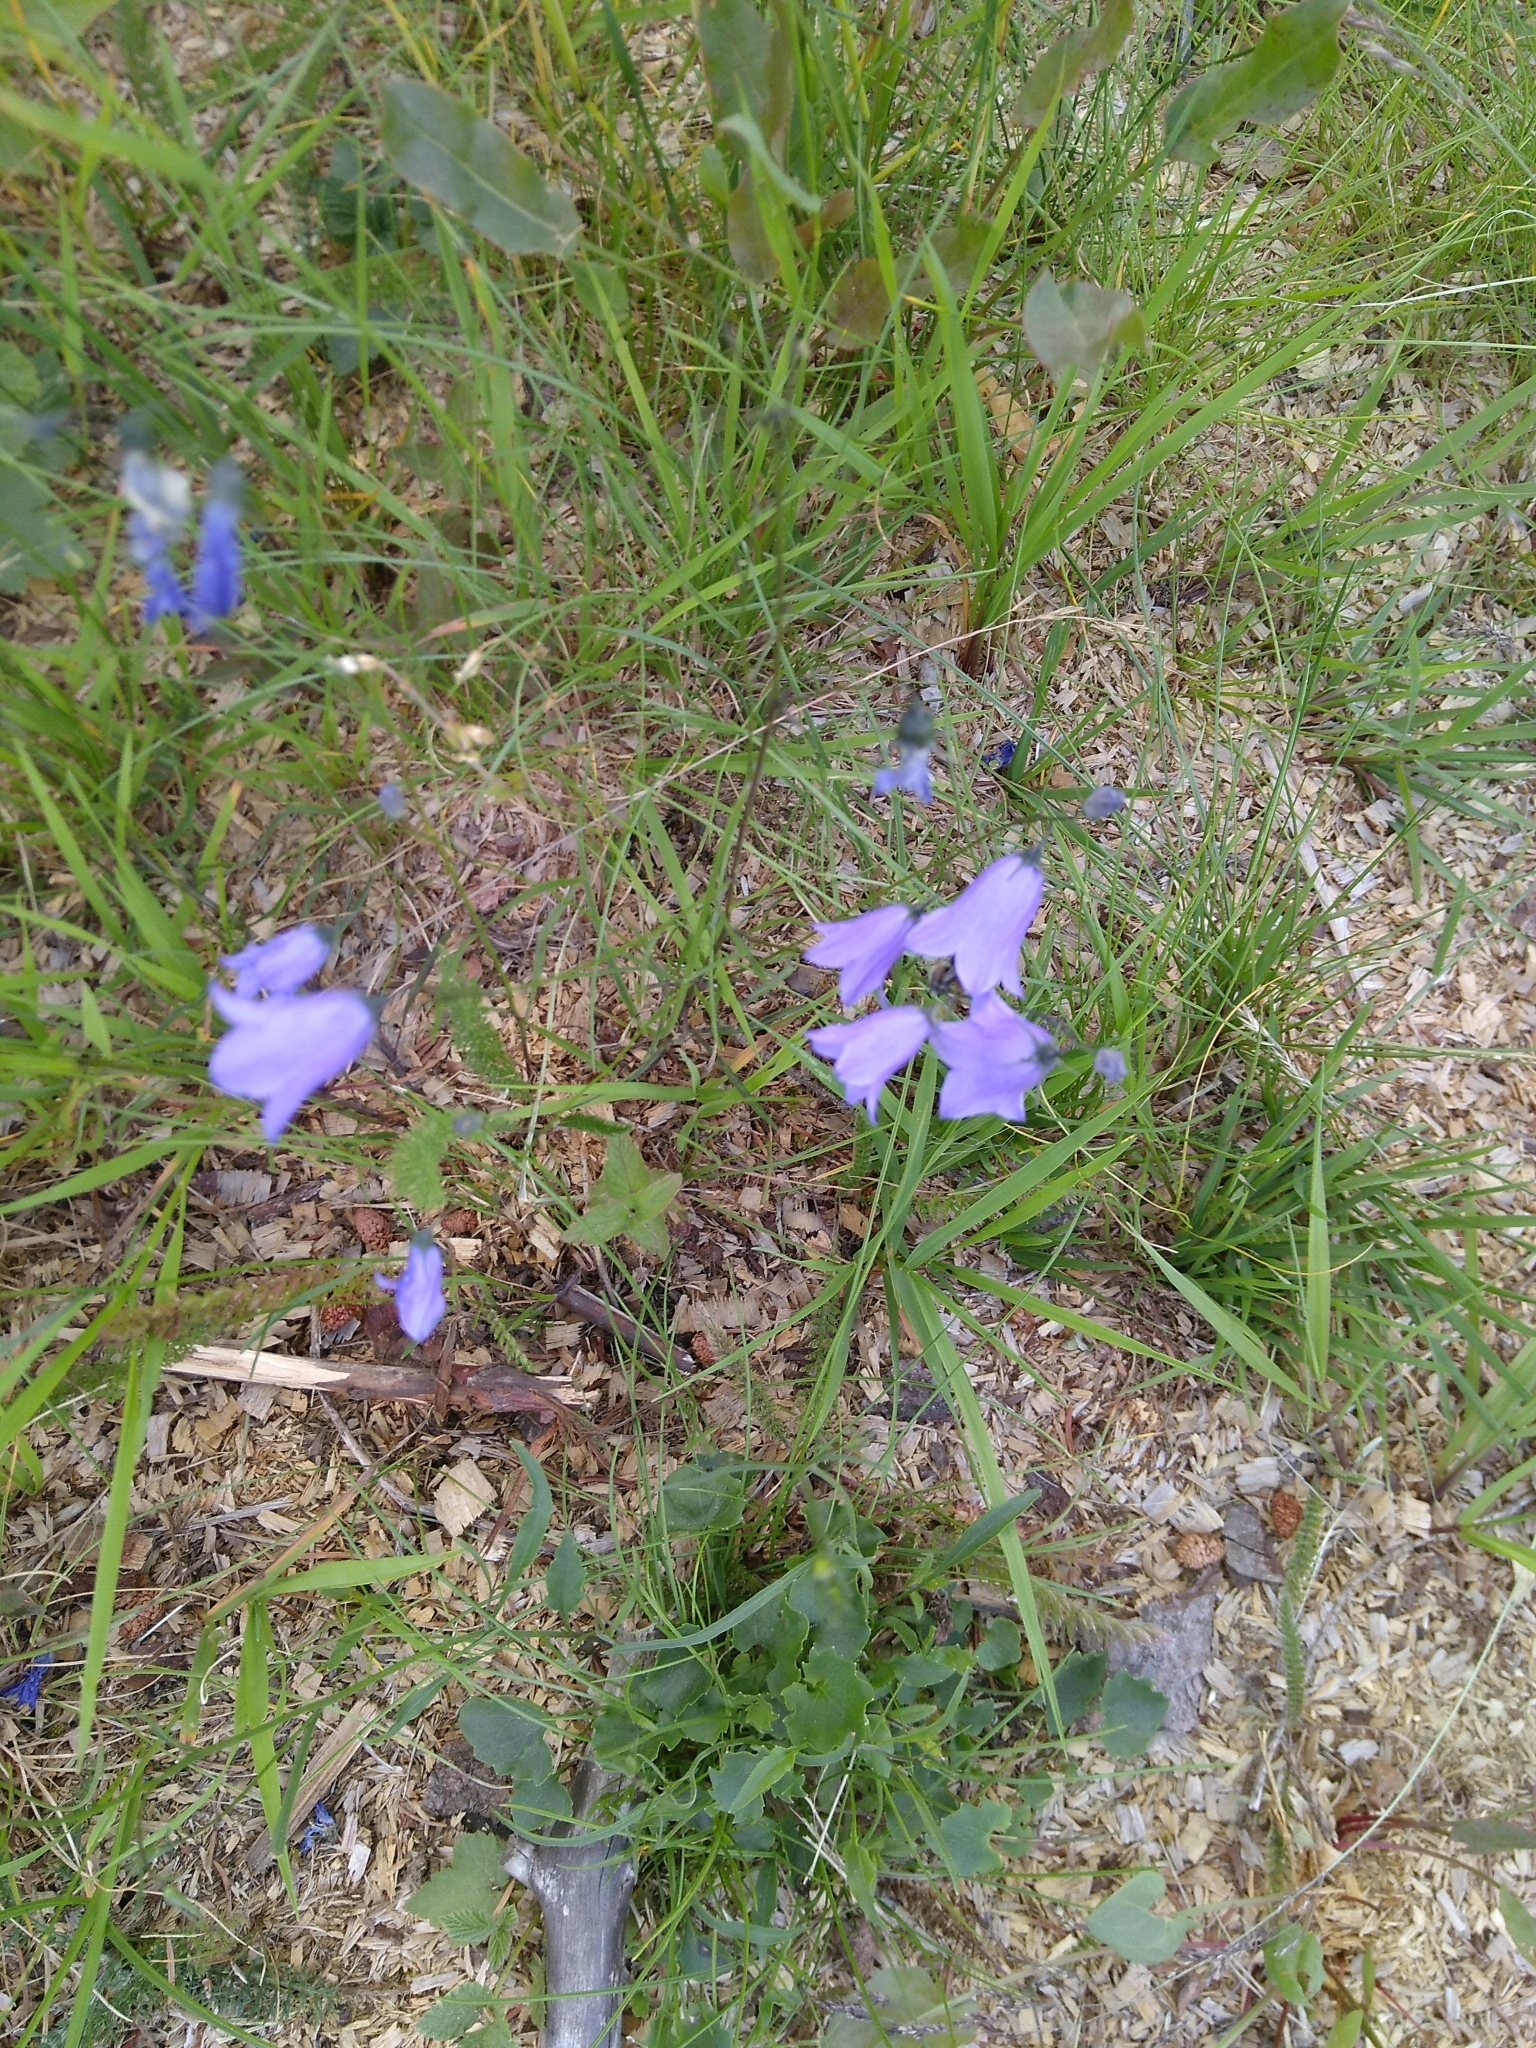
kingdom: Plantae
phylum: Tracheophyta
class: Magnoliopsida
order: Asterales
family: Campanulaceae
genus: Campanula
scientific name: Campanula rotundifolia
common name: Harebell
